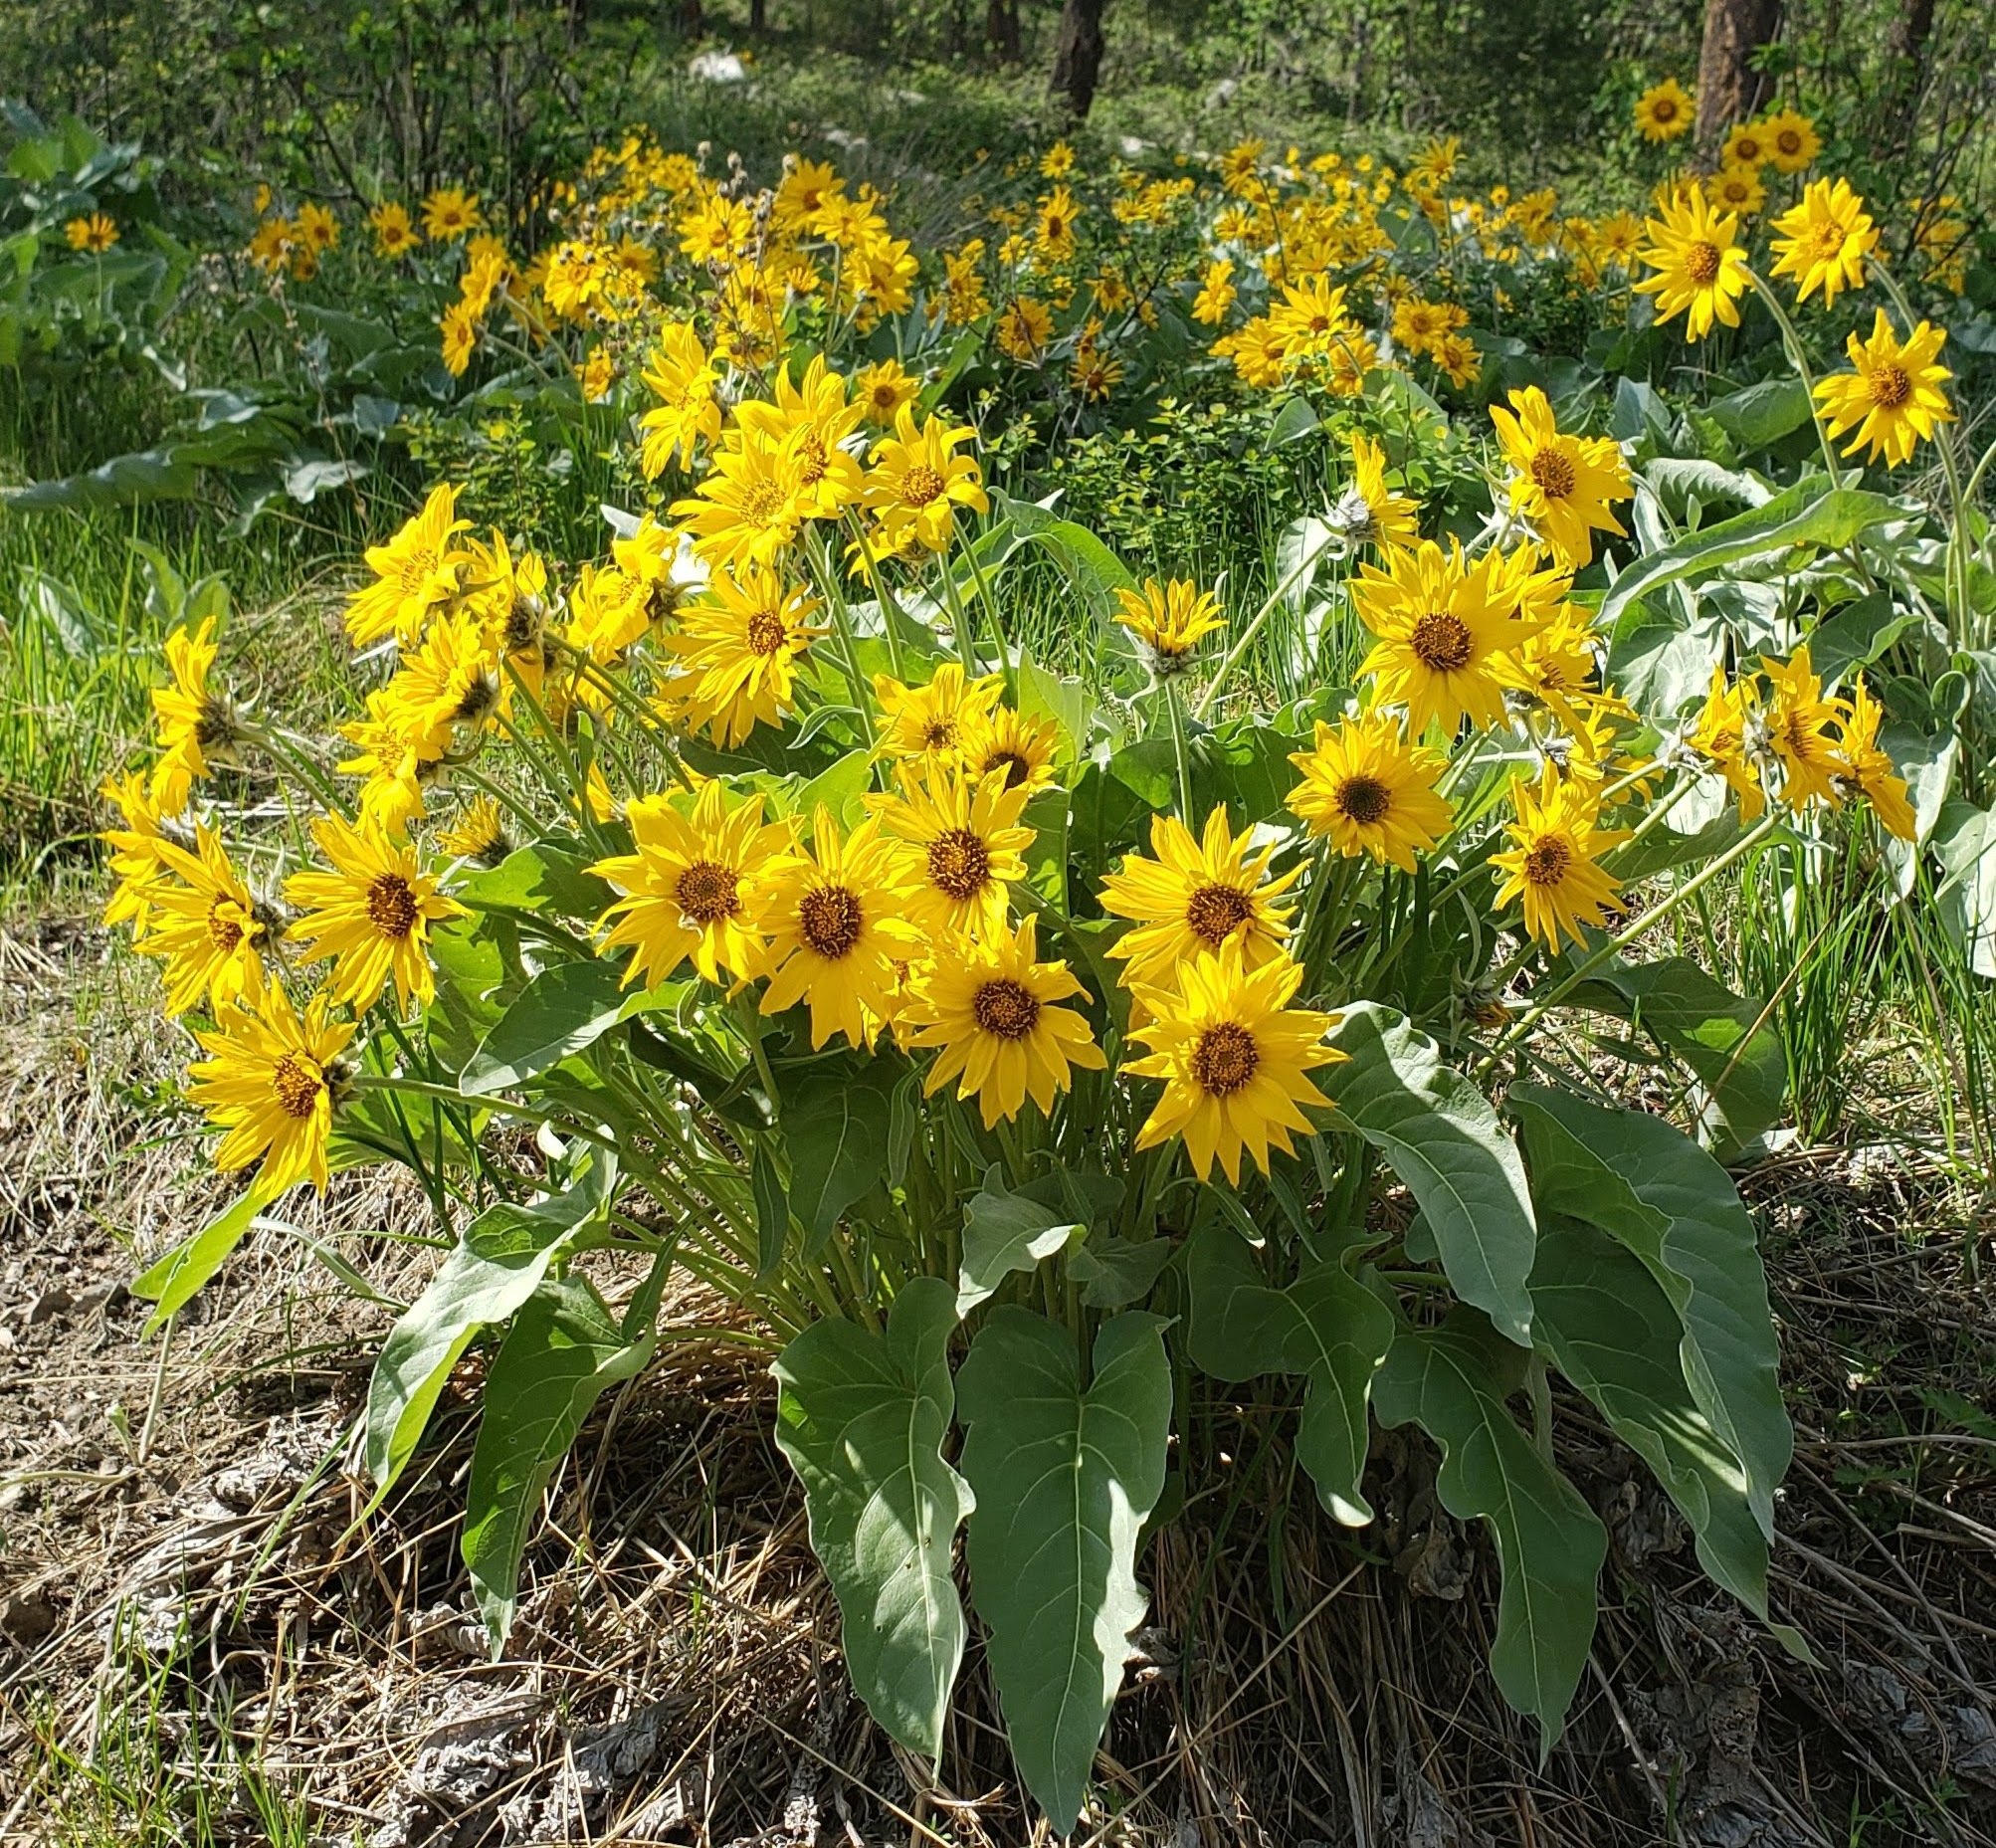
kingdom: Plantae
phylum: Tracheophyta
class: Magnoliopsida
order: Asterales
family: Asteraceae
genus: Wyethia
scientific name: Wyethia sagittata
